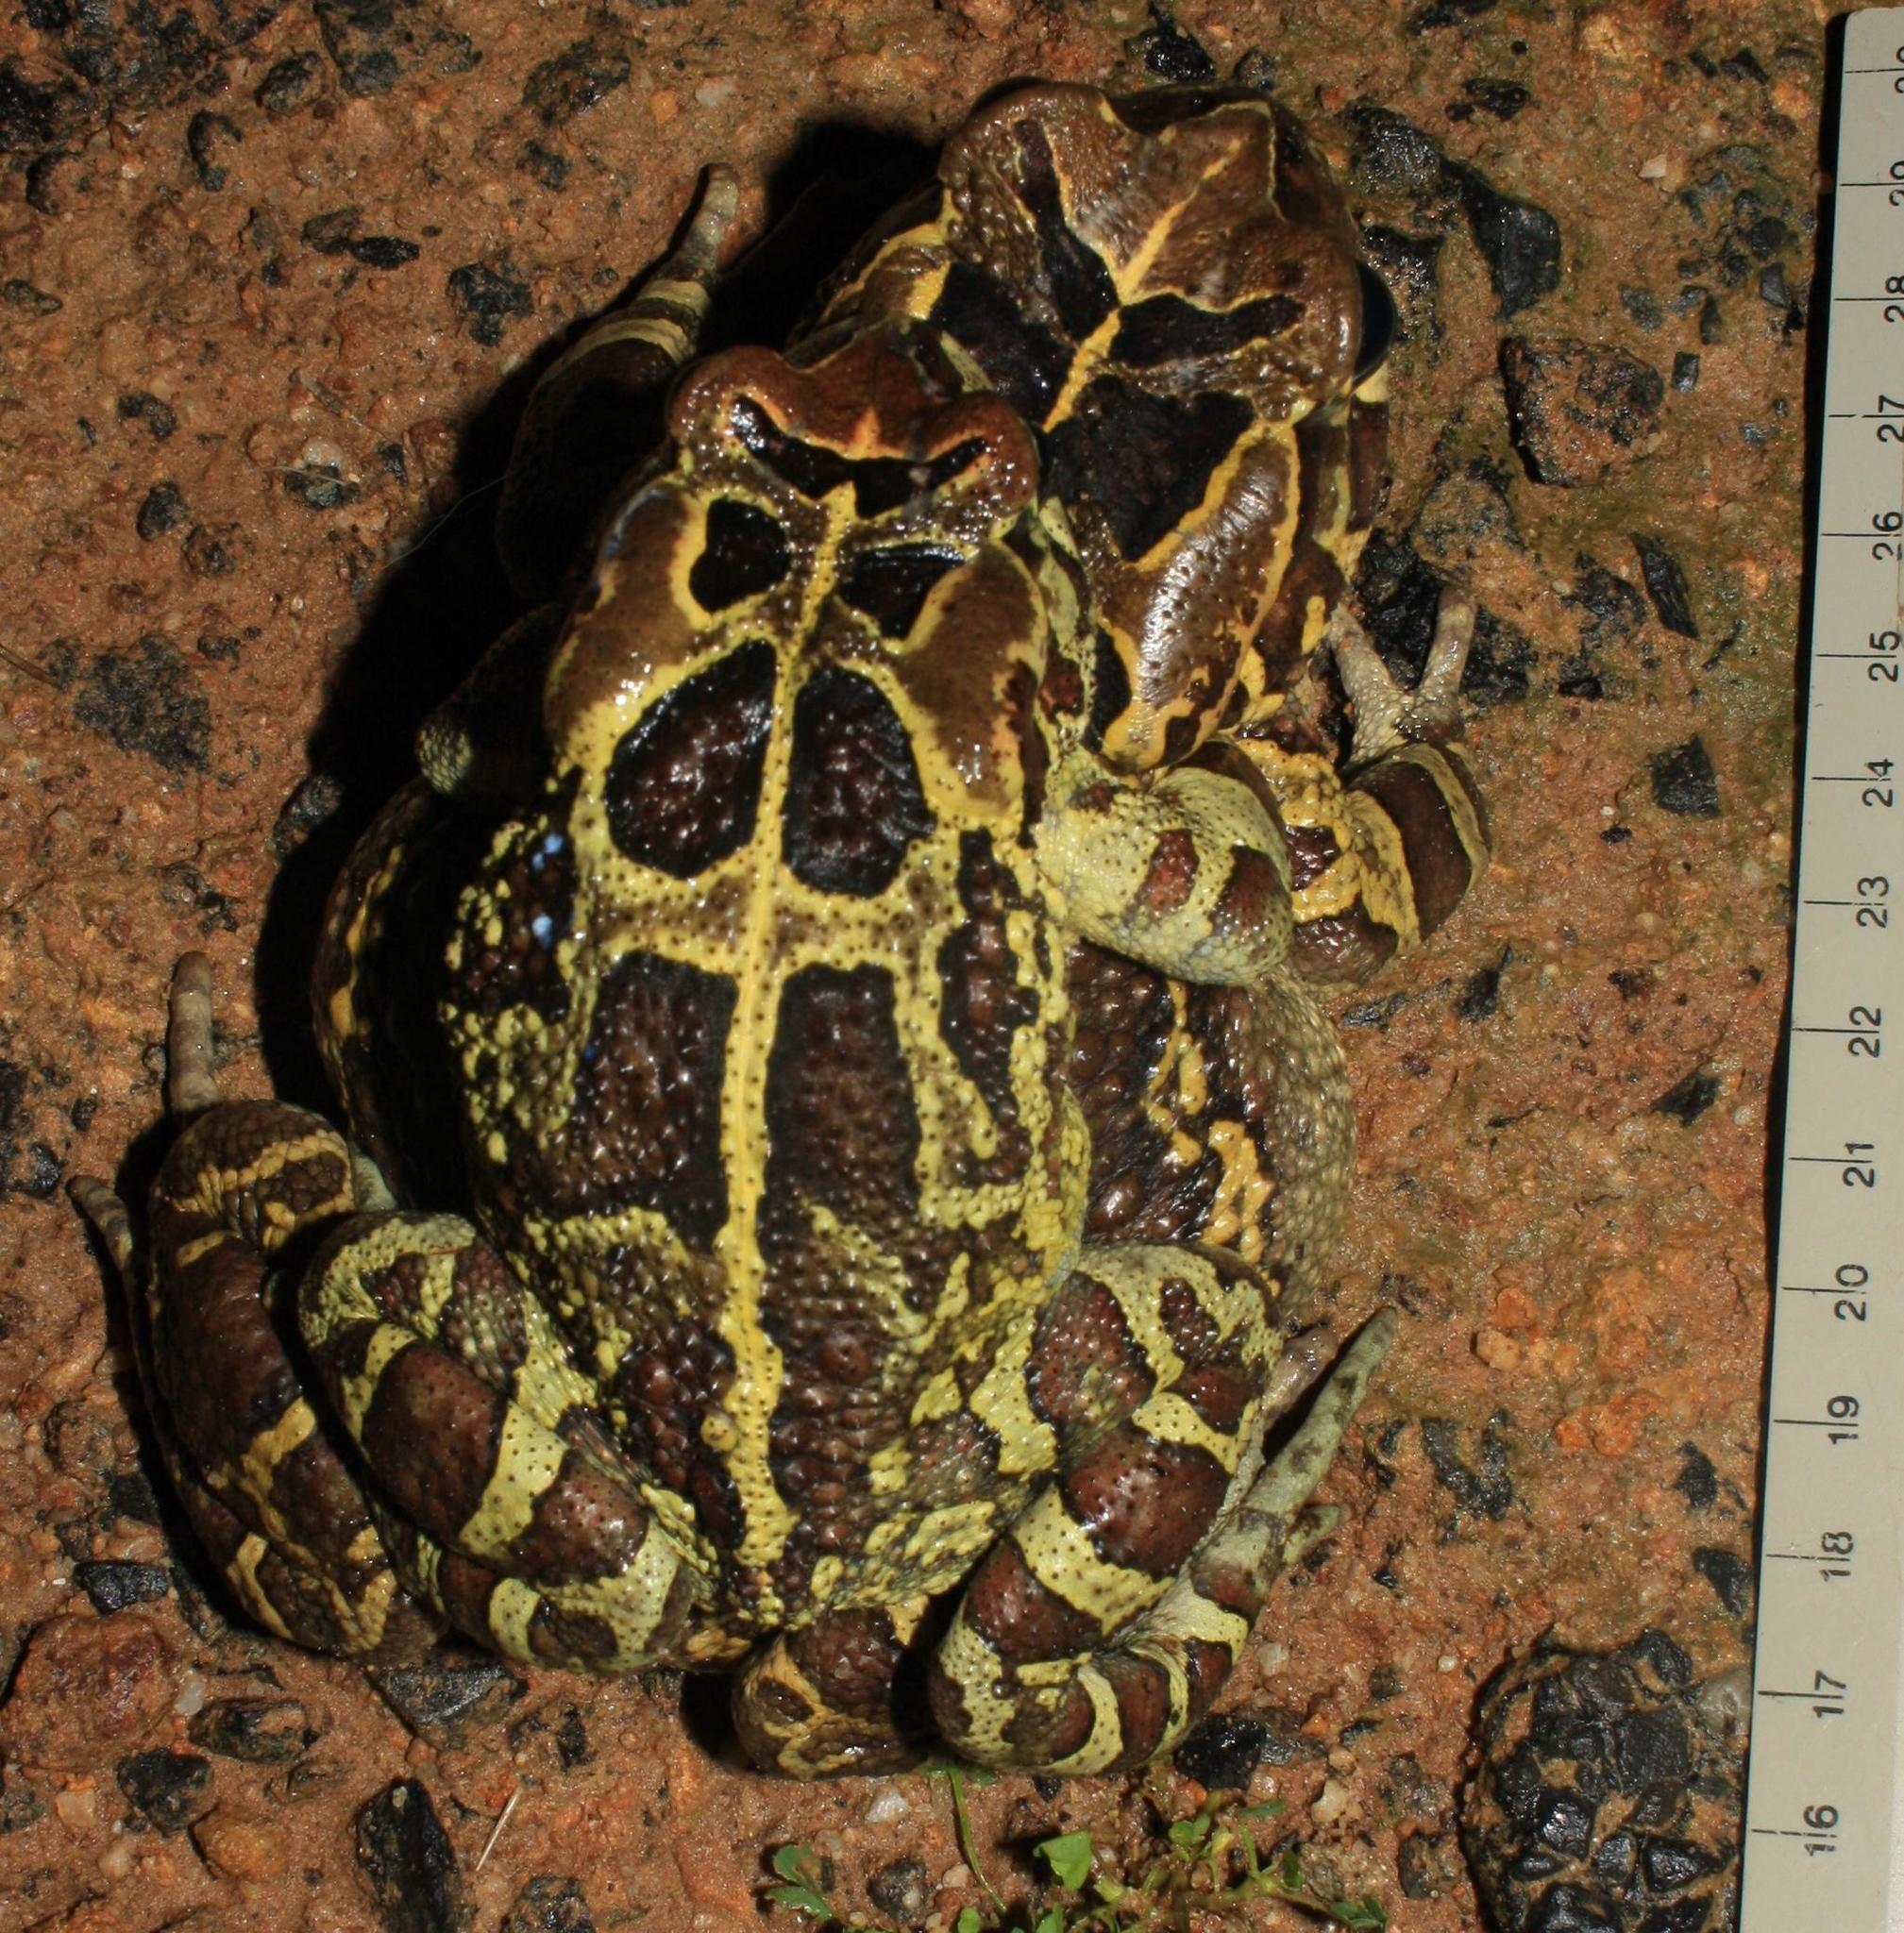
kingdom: Animalia
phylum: Chordata
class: Amphibia
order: Anura
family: Bufonidae
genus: Sclerophrys
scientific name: Sclerophrys pantherina
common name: Panther toad
